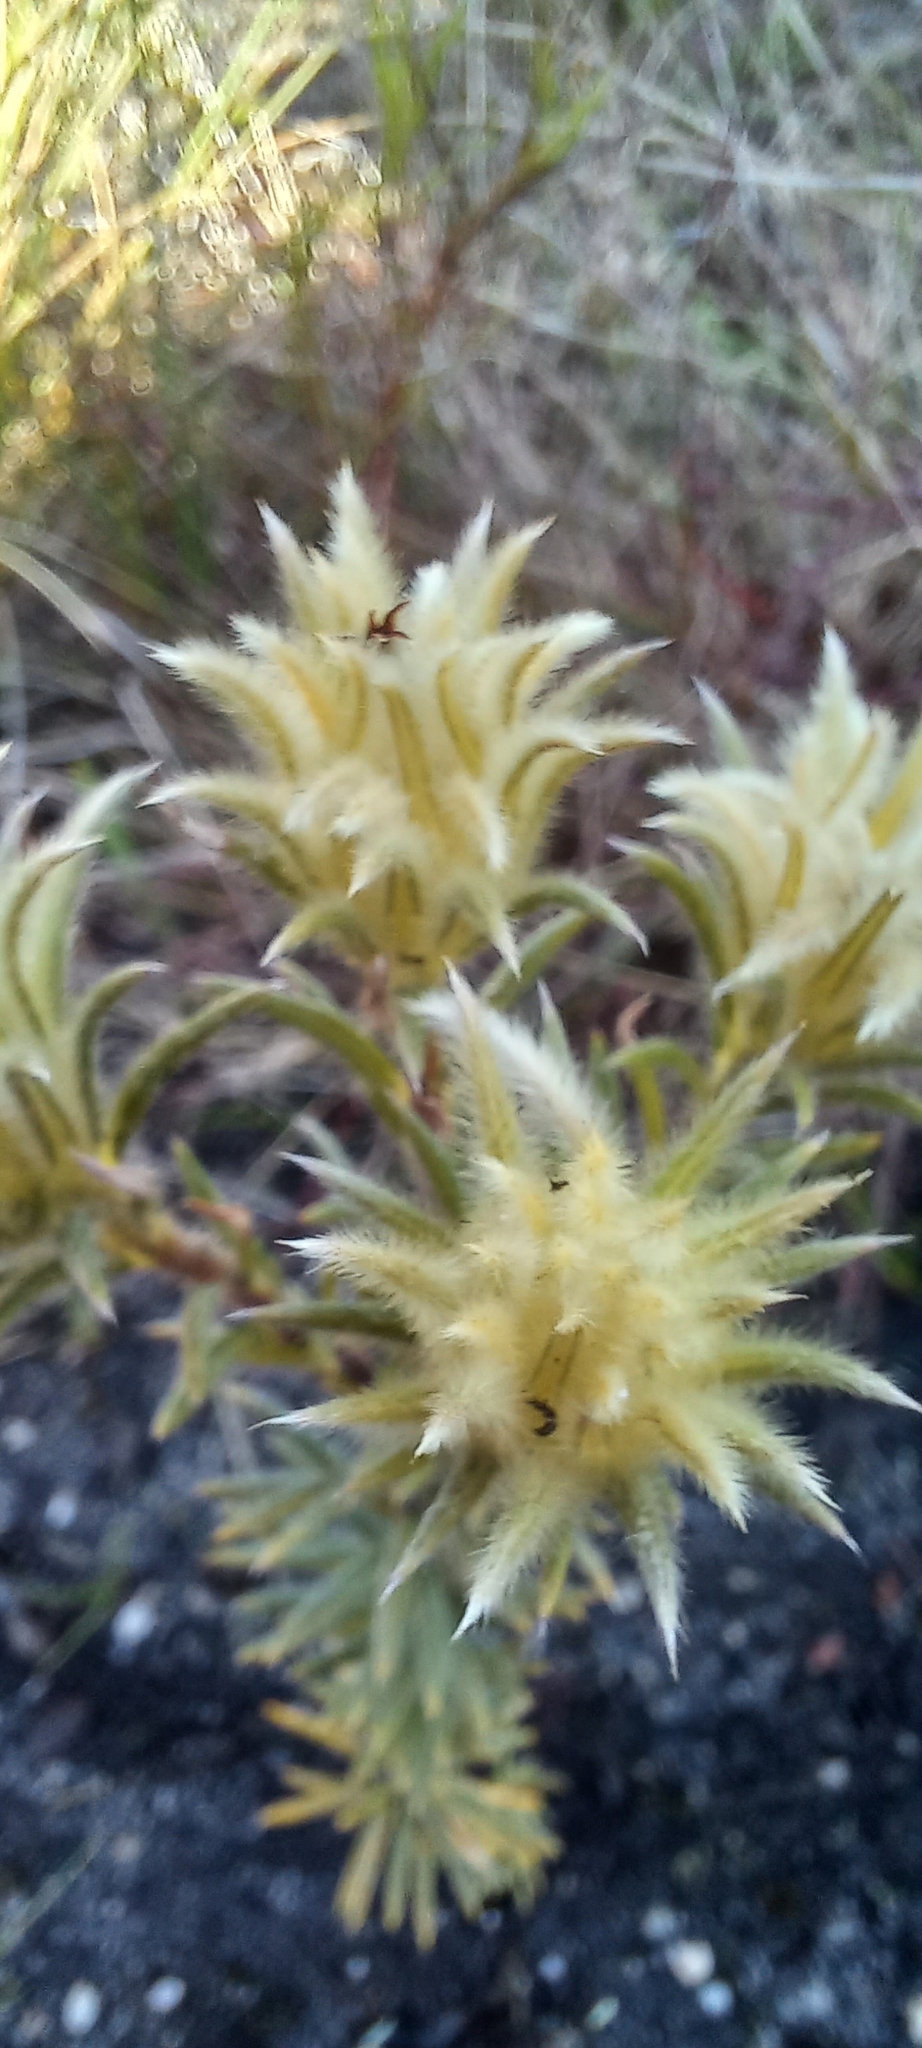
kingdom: Plantae
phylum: Tracheophyta
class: Magnoliopsida
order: Rosales
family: Rhamnaceae
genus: Phylica
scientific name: Phylica plumosa
